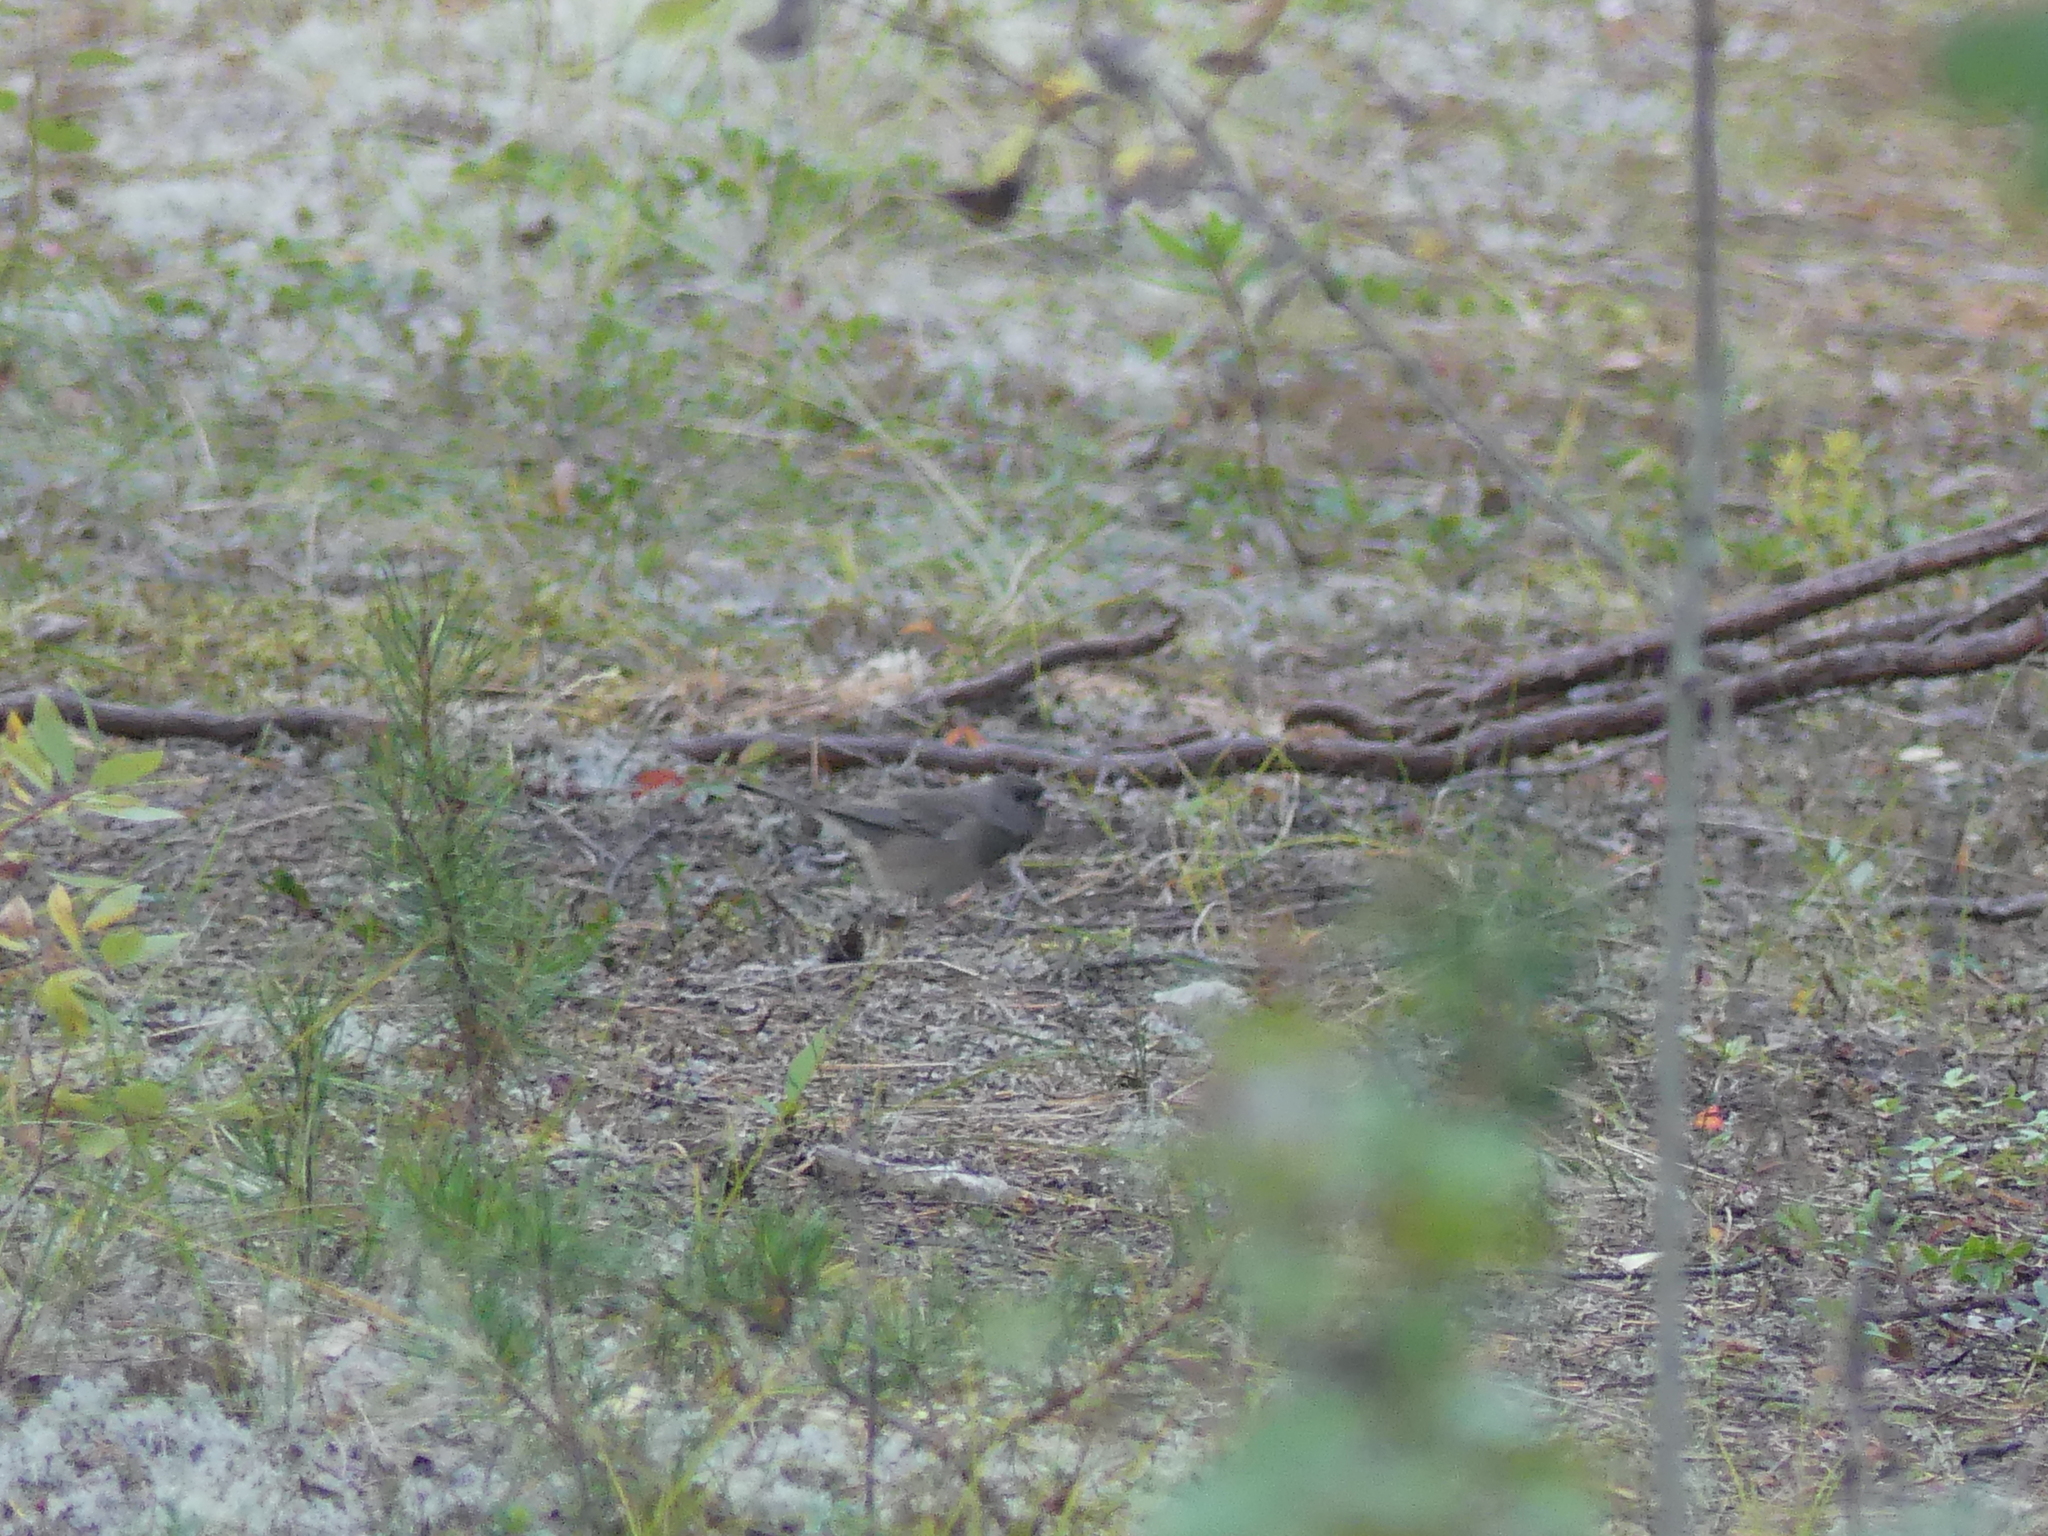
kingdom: Animalia
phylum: Chordata
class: Aves
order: Passeriformes
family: Passerellidae
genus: Junco
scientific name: Junco hyemalis
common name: Dark-eyed junco
